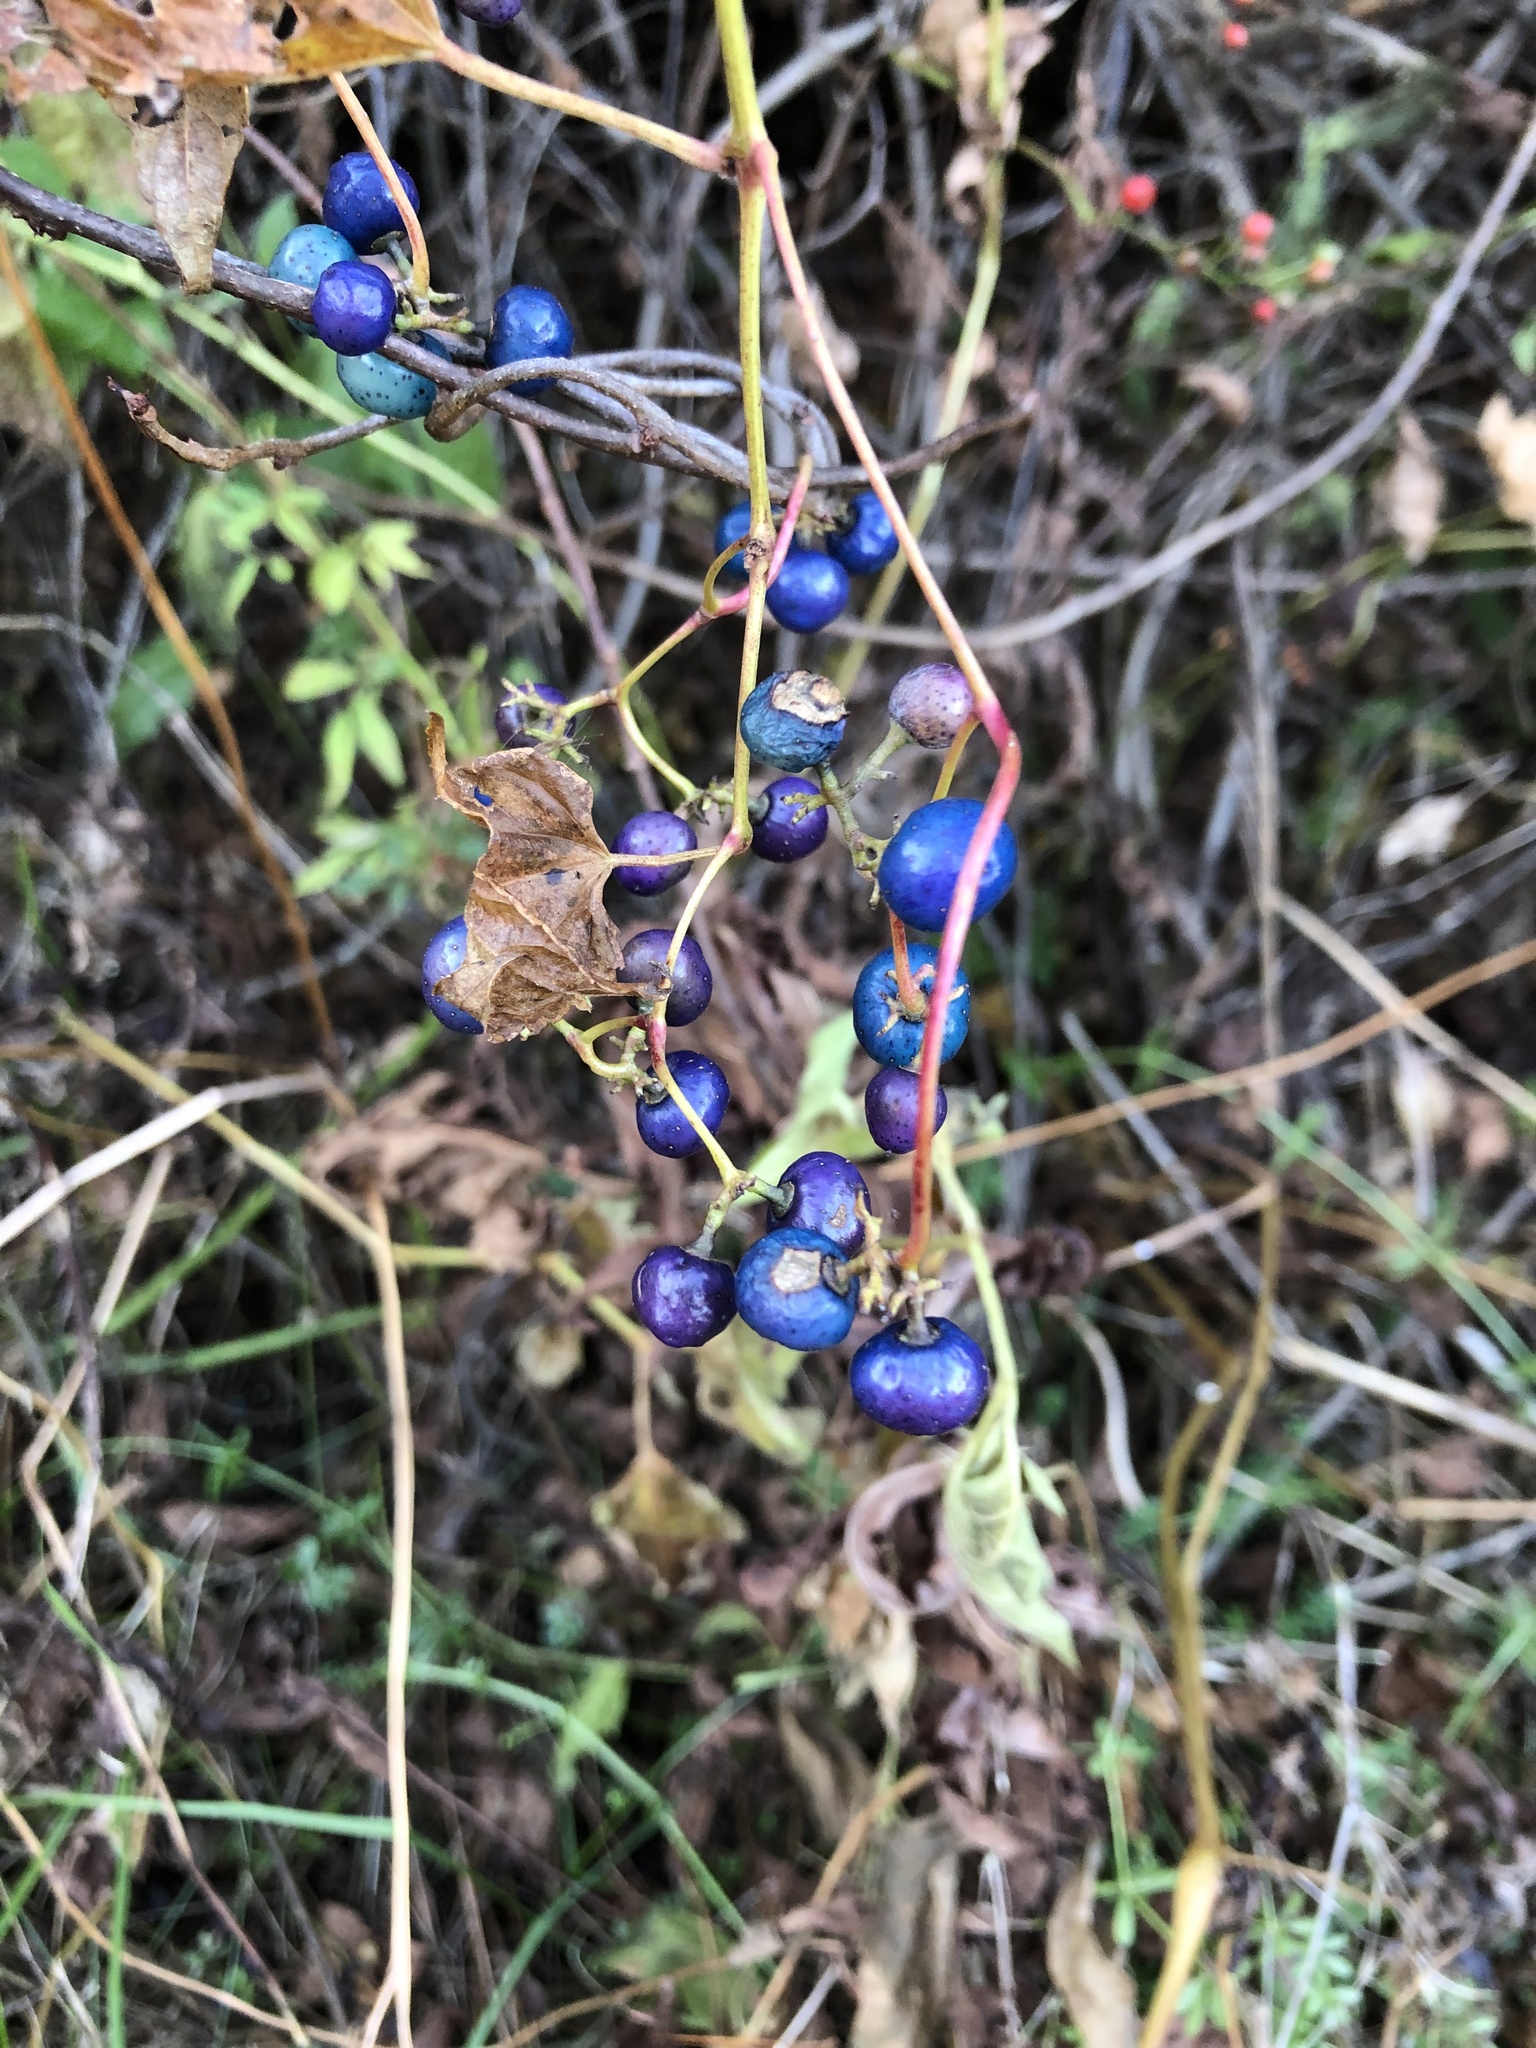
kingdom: Plantae
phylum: Tracheophyta
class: Magnoliopsida
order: Vitales
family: Vitaceae
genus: Ampelopsis
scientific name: Ampelopsis glandulosa
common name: Amur peppervine
